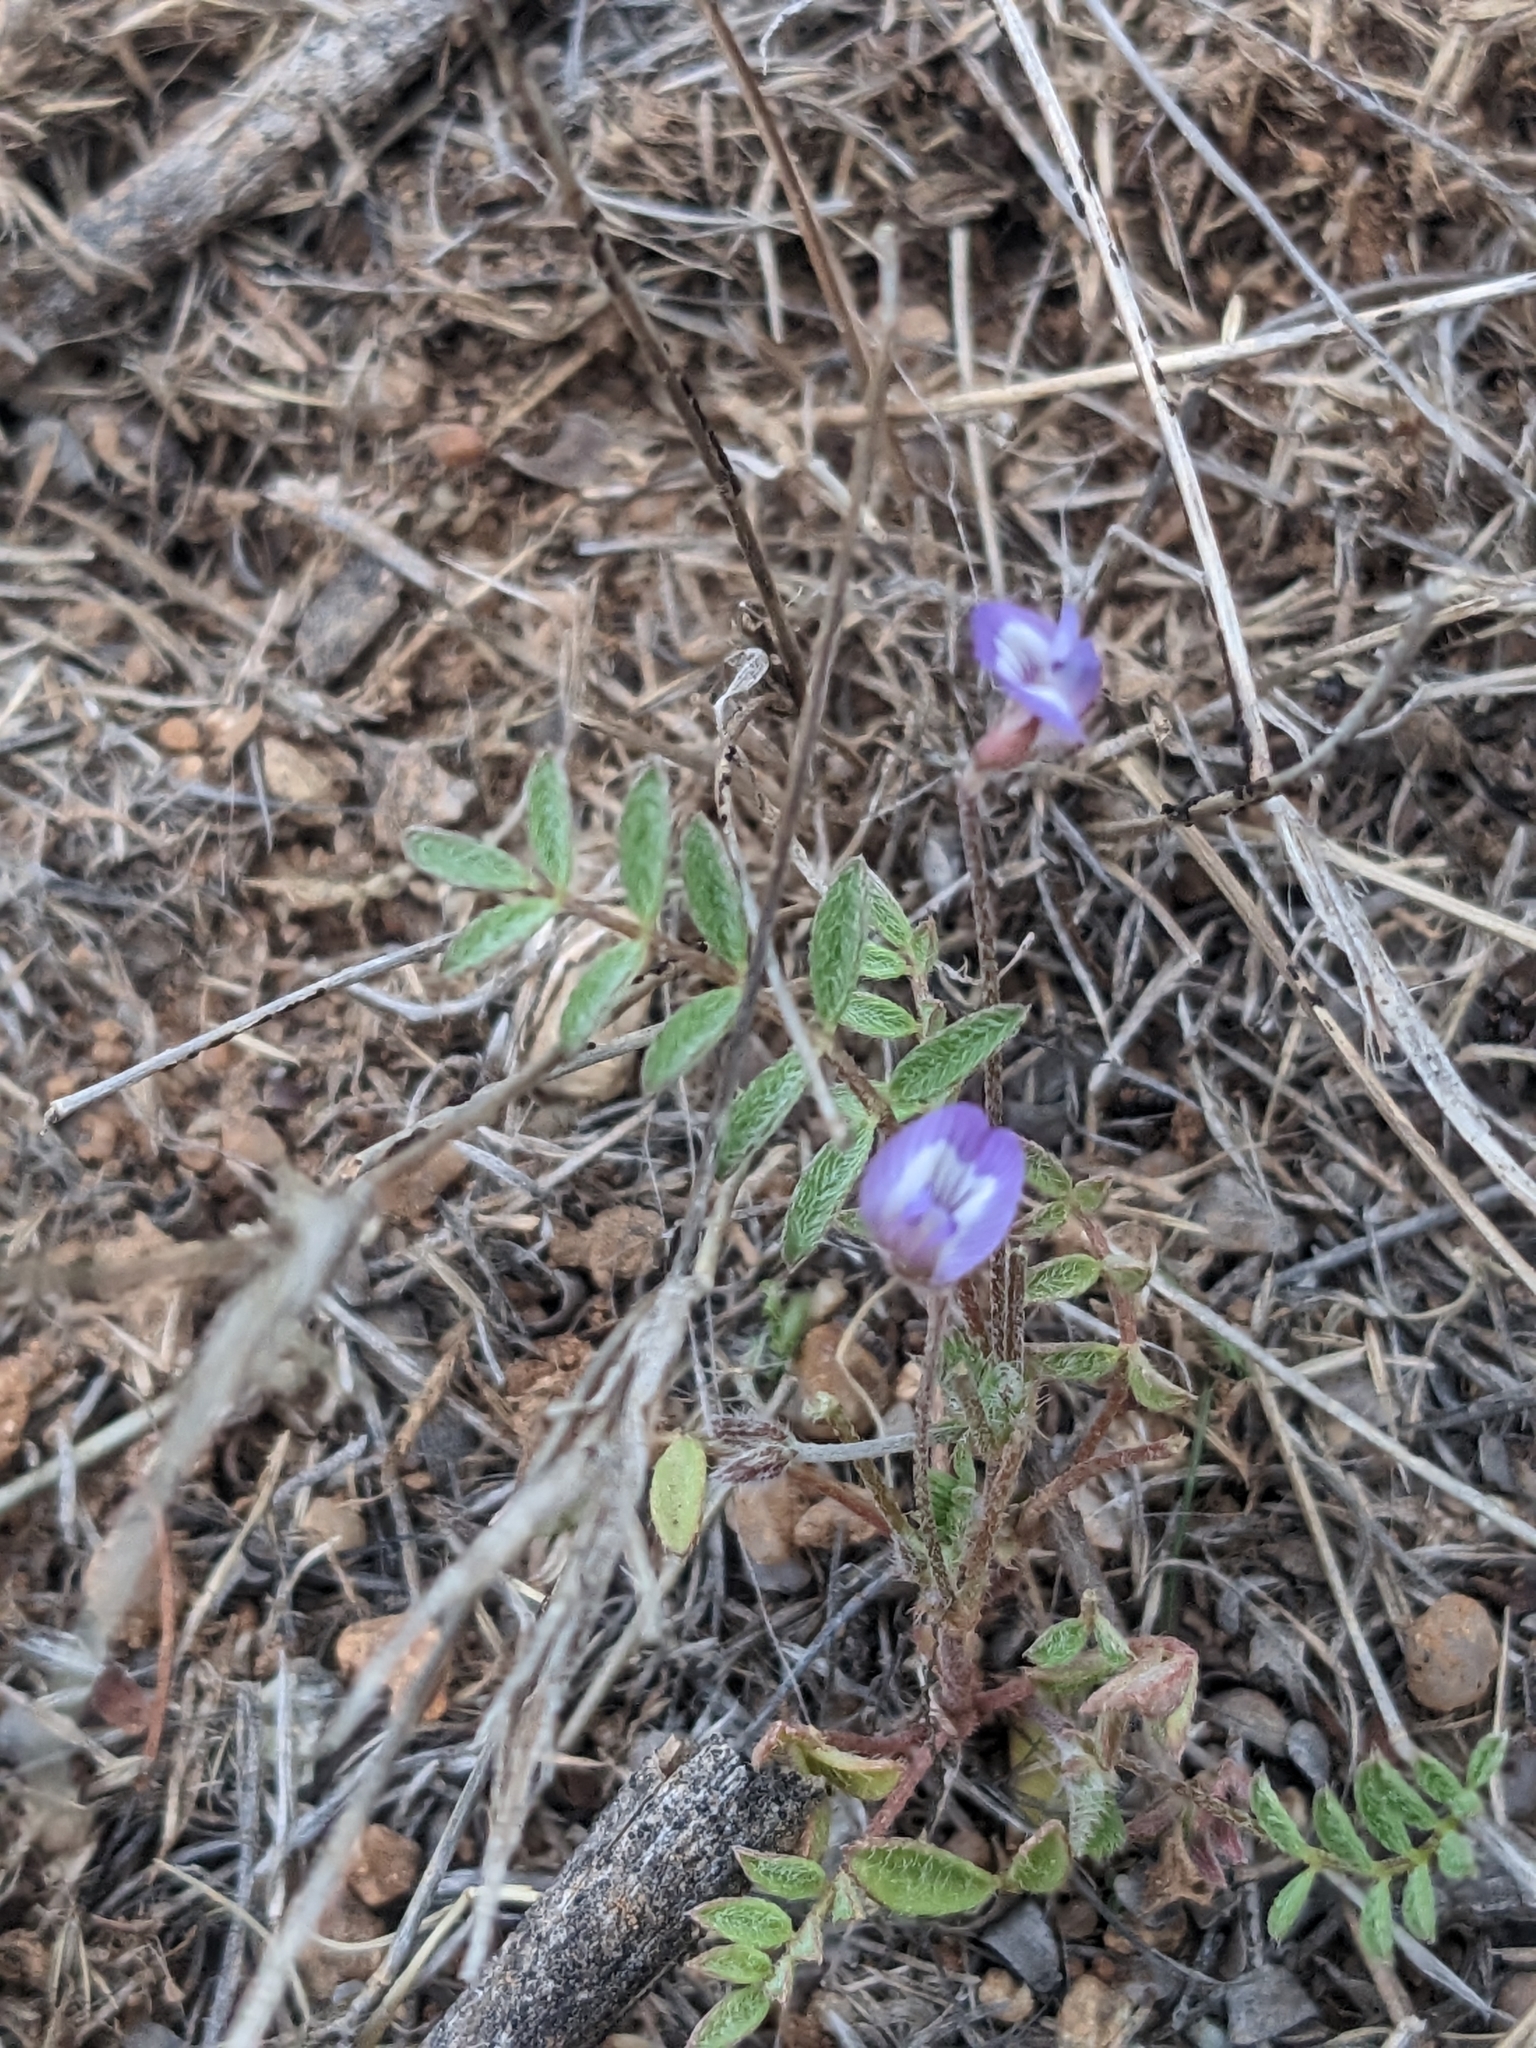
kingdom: Plantae
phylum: Tracheophyta
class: Magnoliopsida
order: Fabales
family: Fabaceae
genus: Astragalus
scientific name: Astragalus nuttallianus
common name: Smallflowered milkvetch
